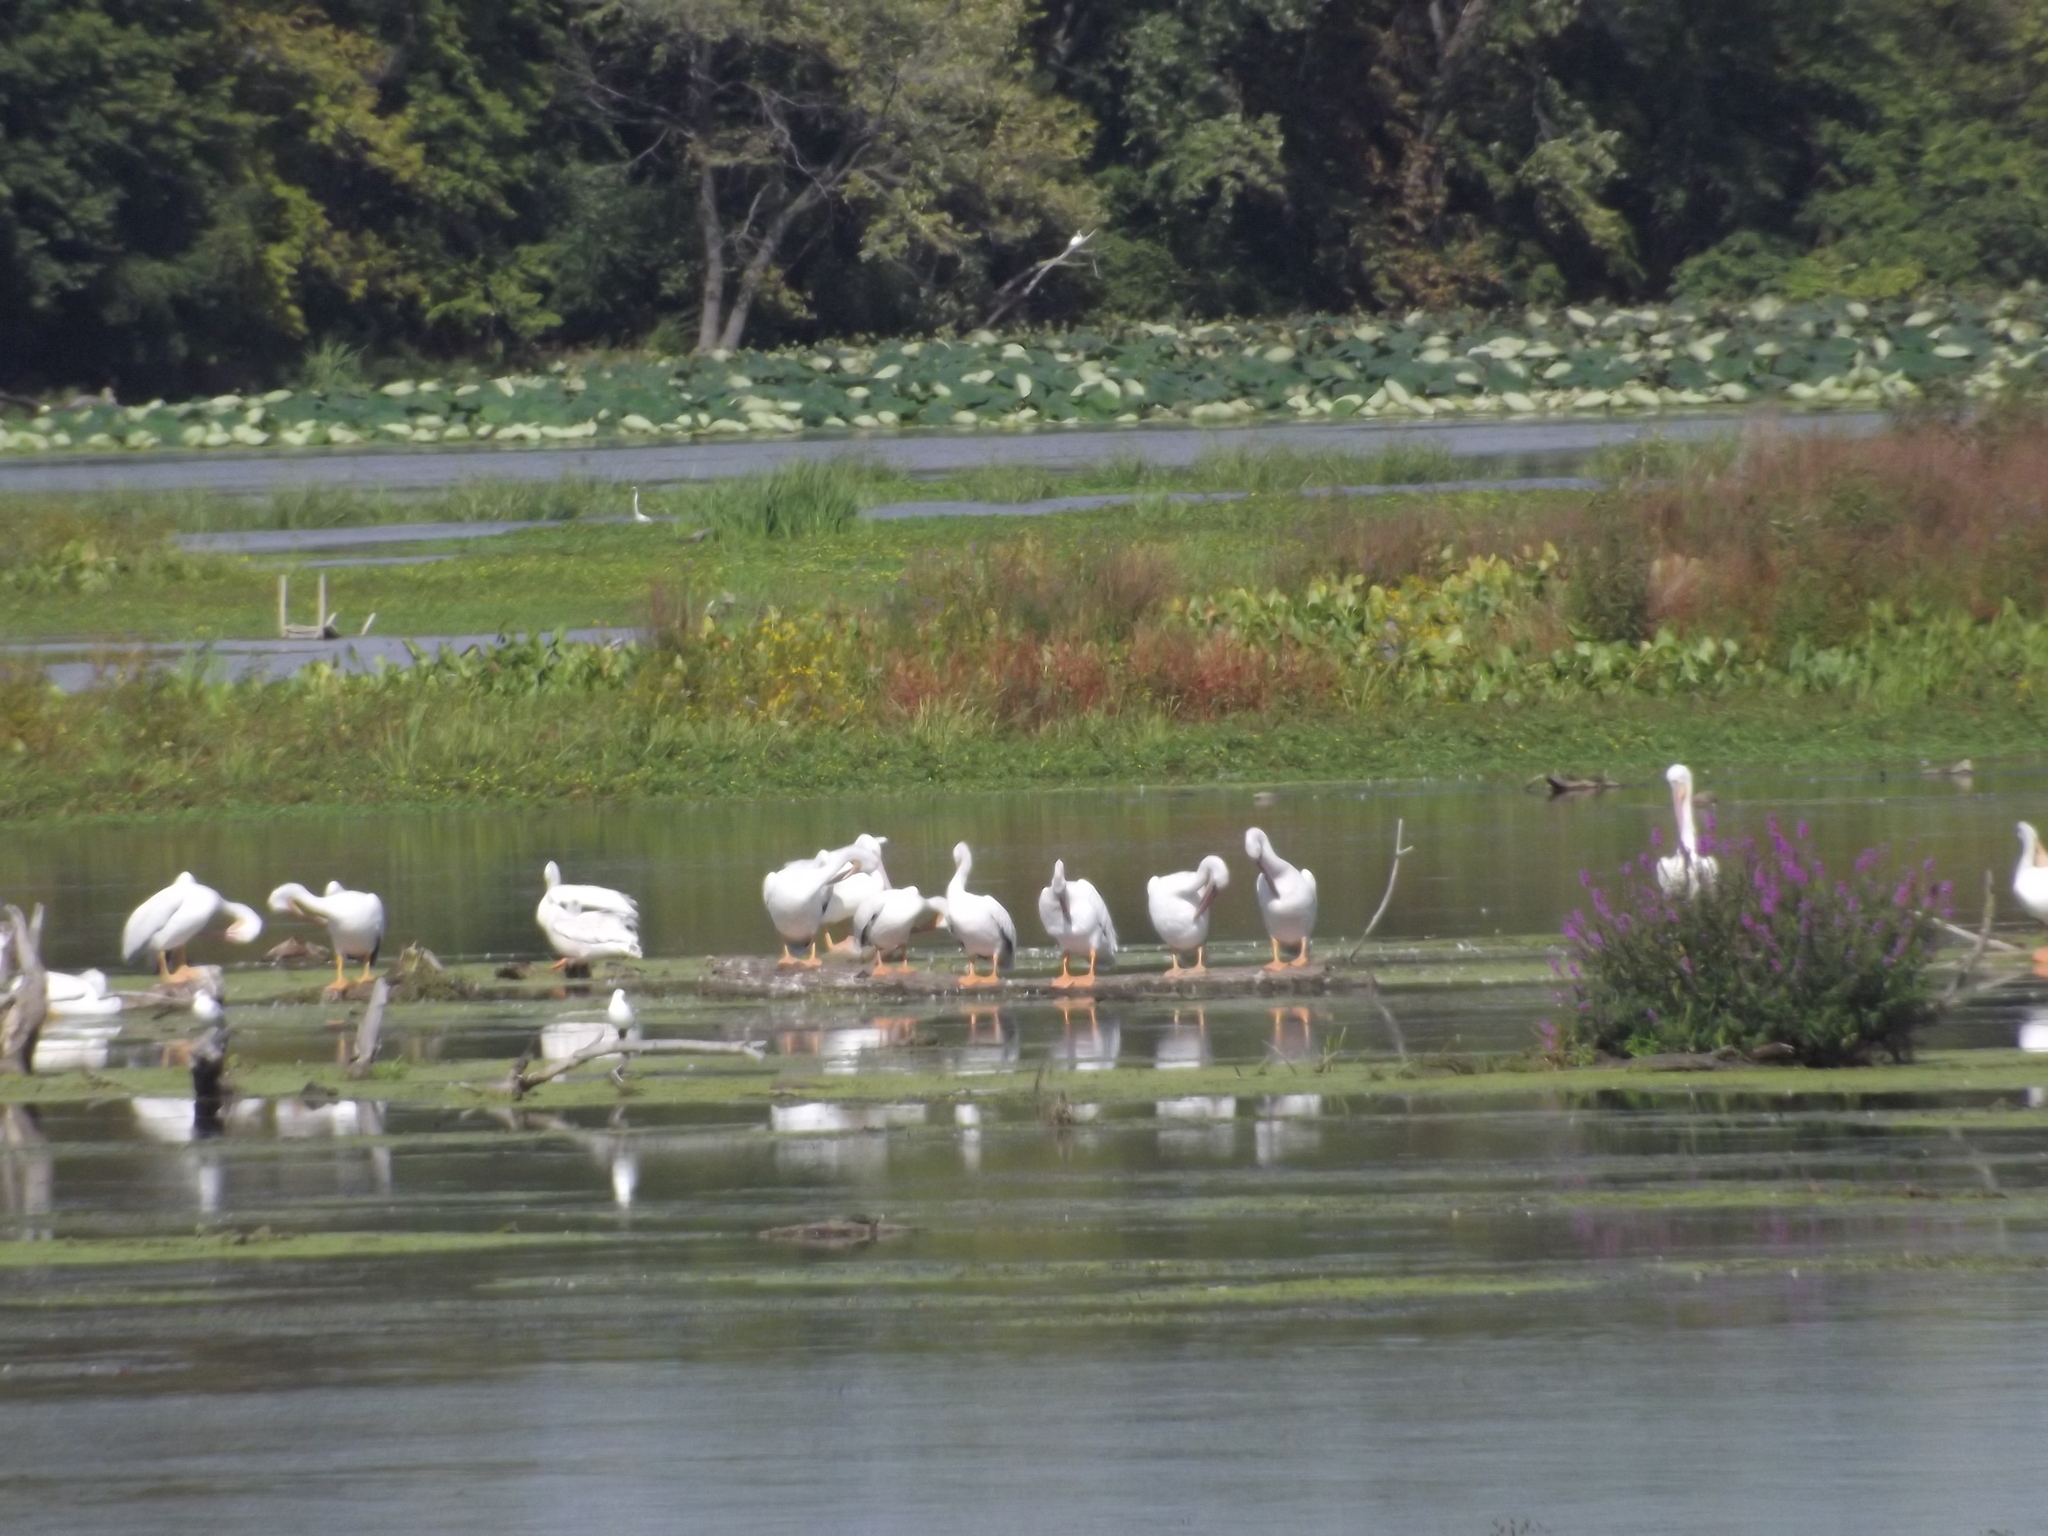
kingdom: Animalia
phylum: Chordata
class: Aves
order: Pelecaniformes
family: Pelecanidae
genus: Pelecanus
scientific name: Pelecanus erythrorhynchos
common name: American white pelican
